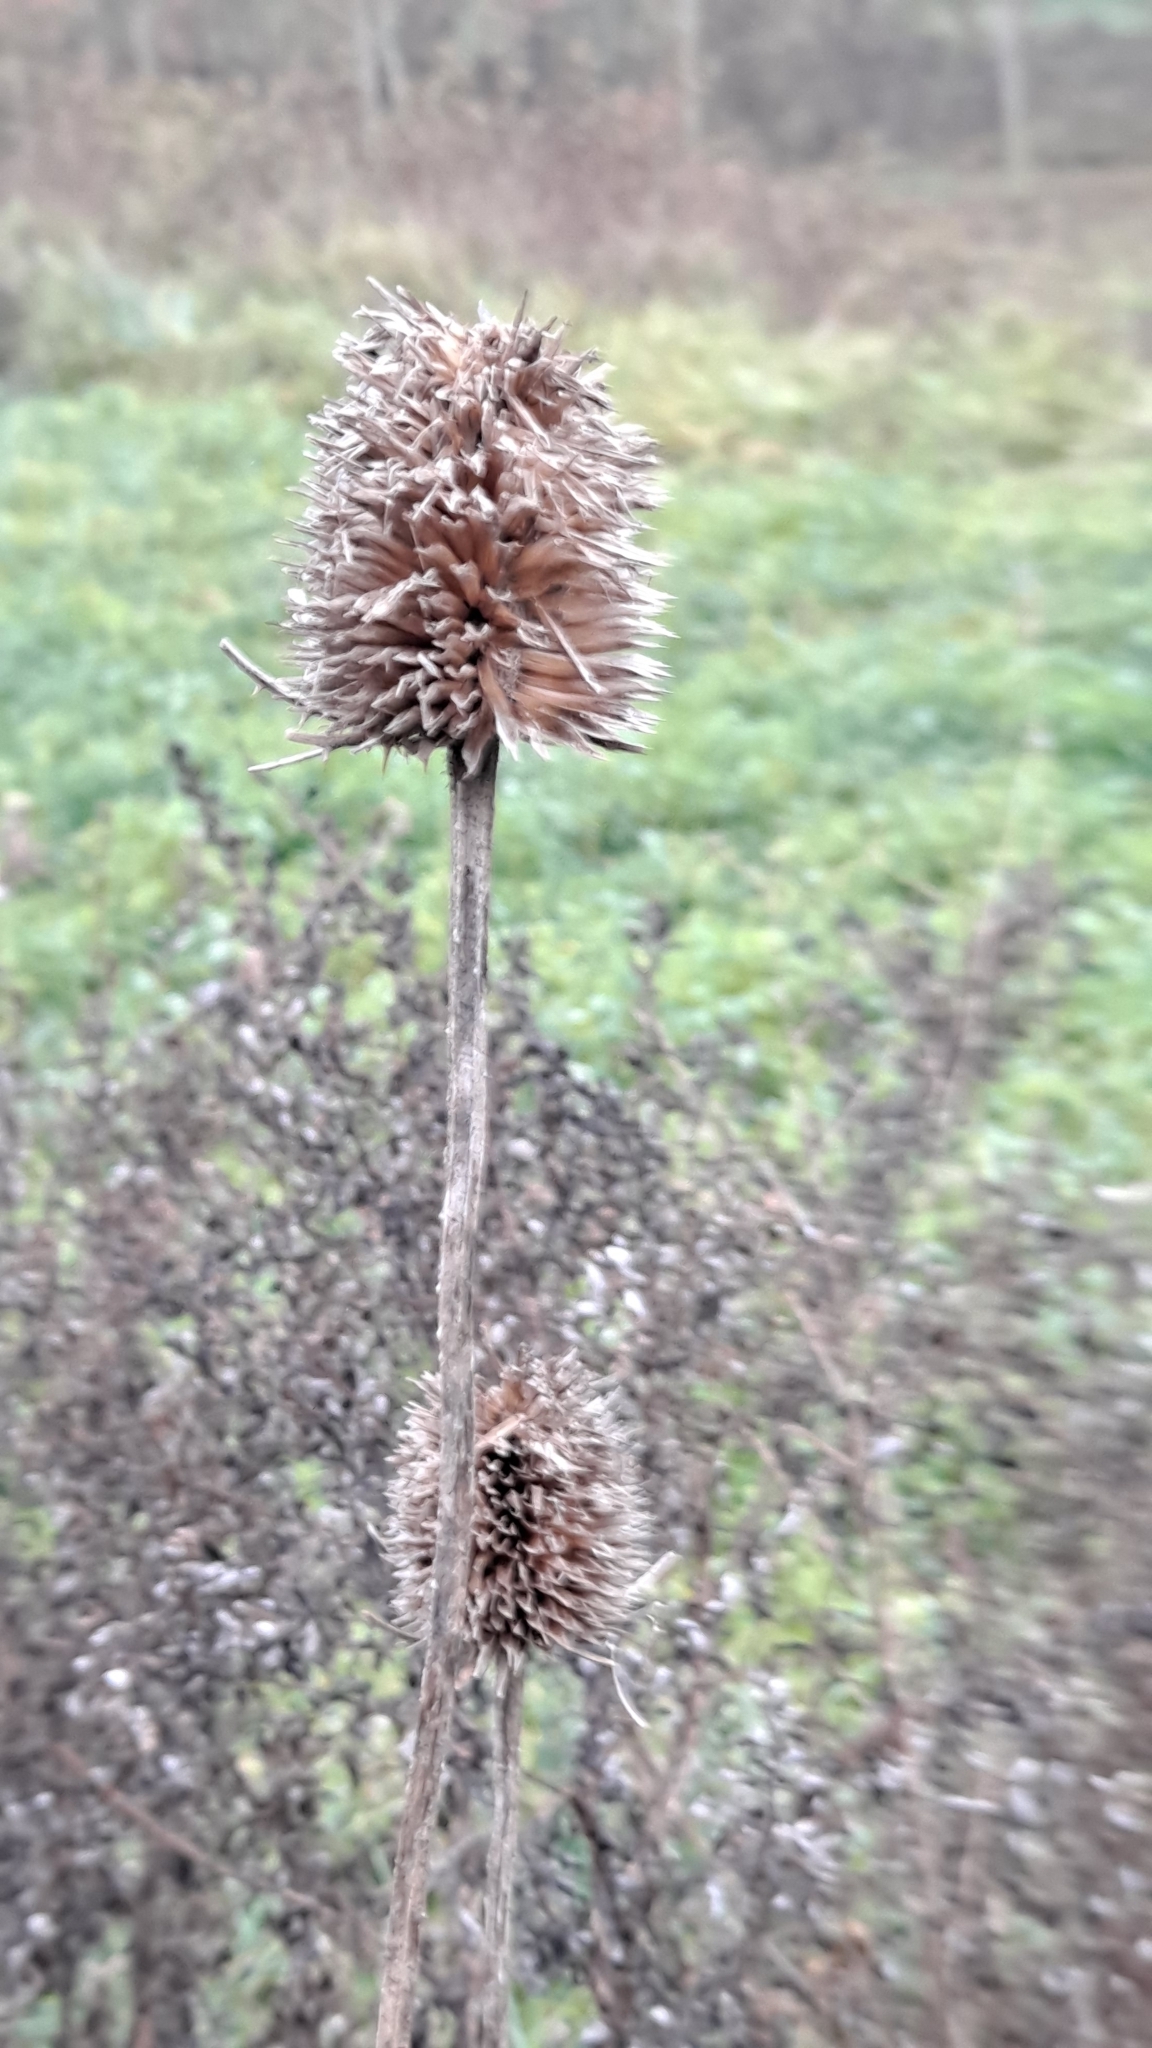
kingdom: Plantae
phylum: Tracheophyta
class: Magnoliopsida
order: Dipsacales
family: Caprifoliaceae
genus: Dipsacus
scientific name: Dipsacus fullonum
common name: Teasel
